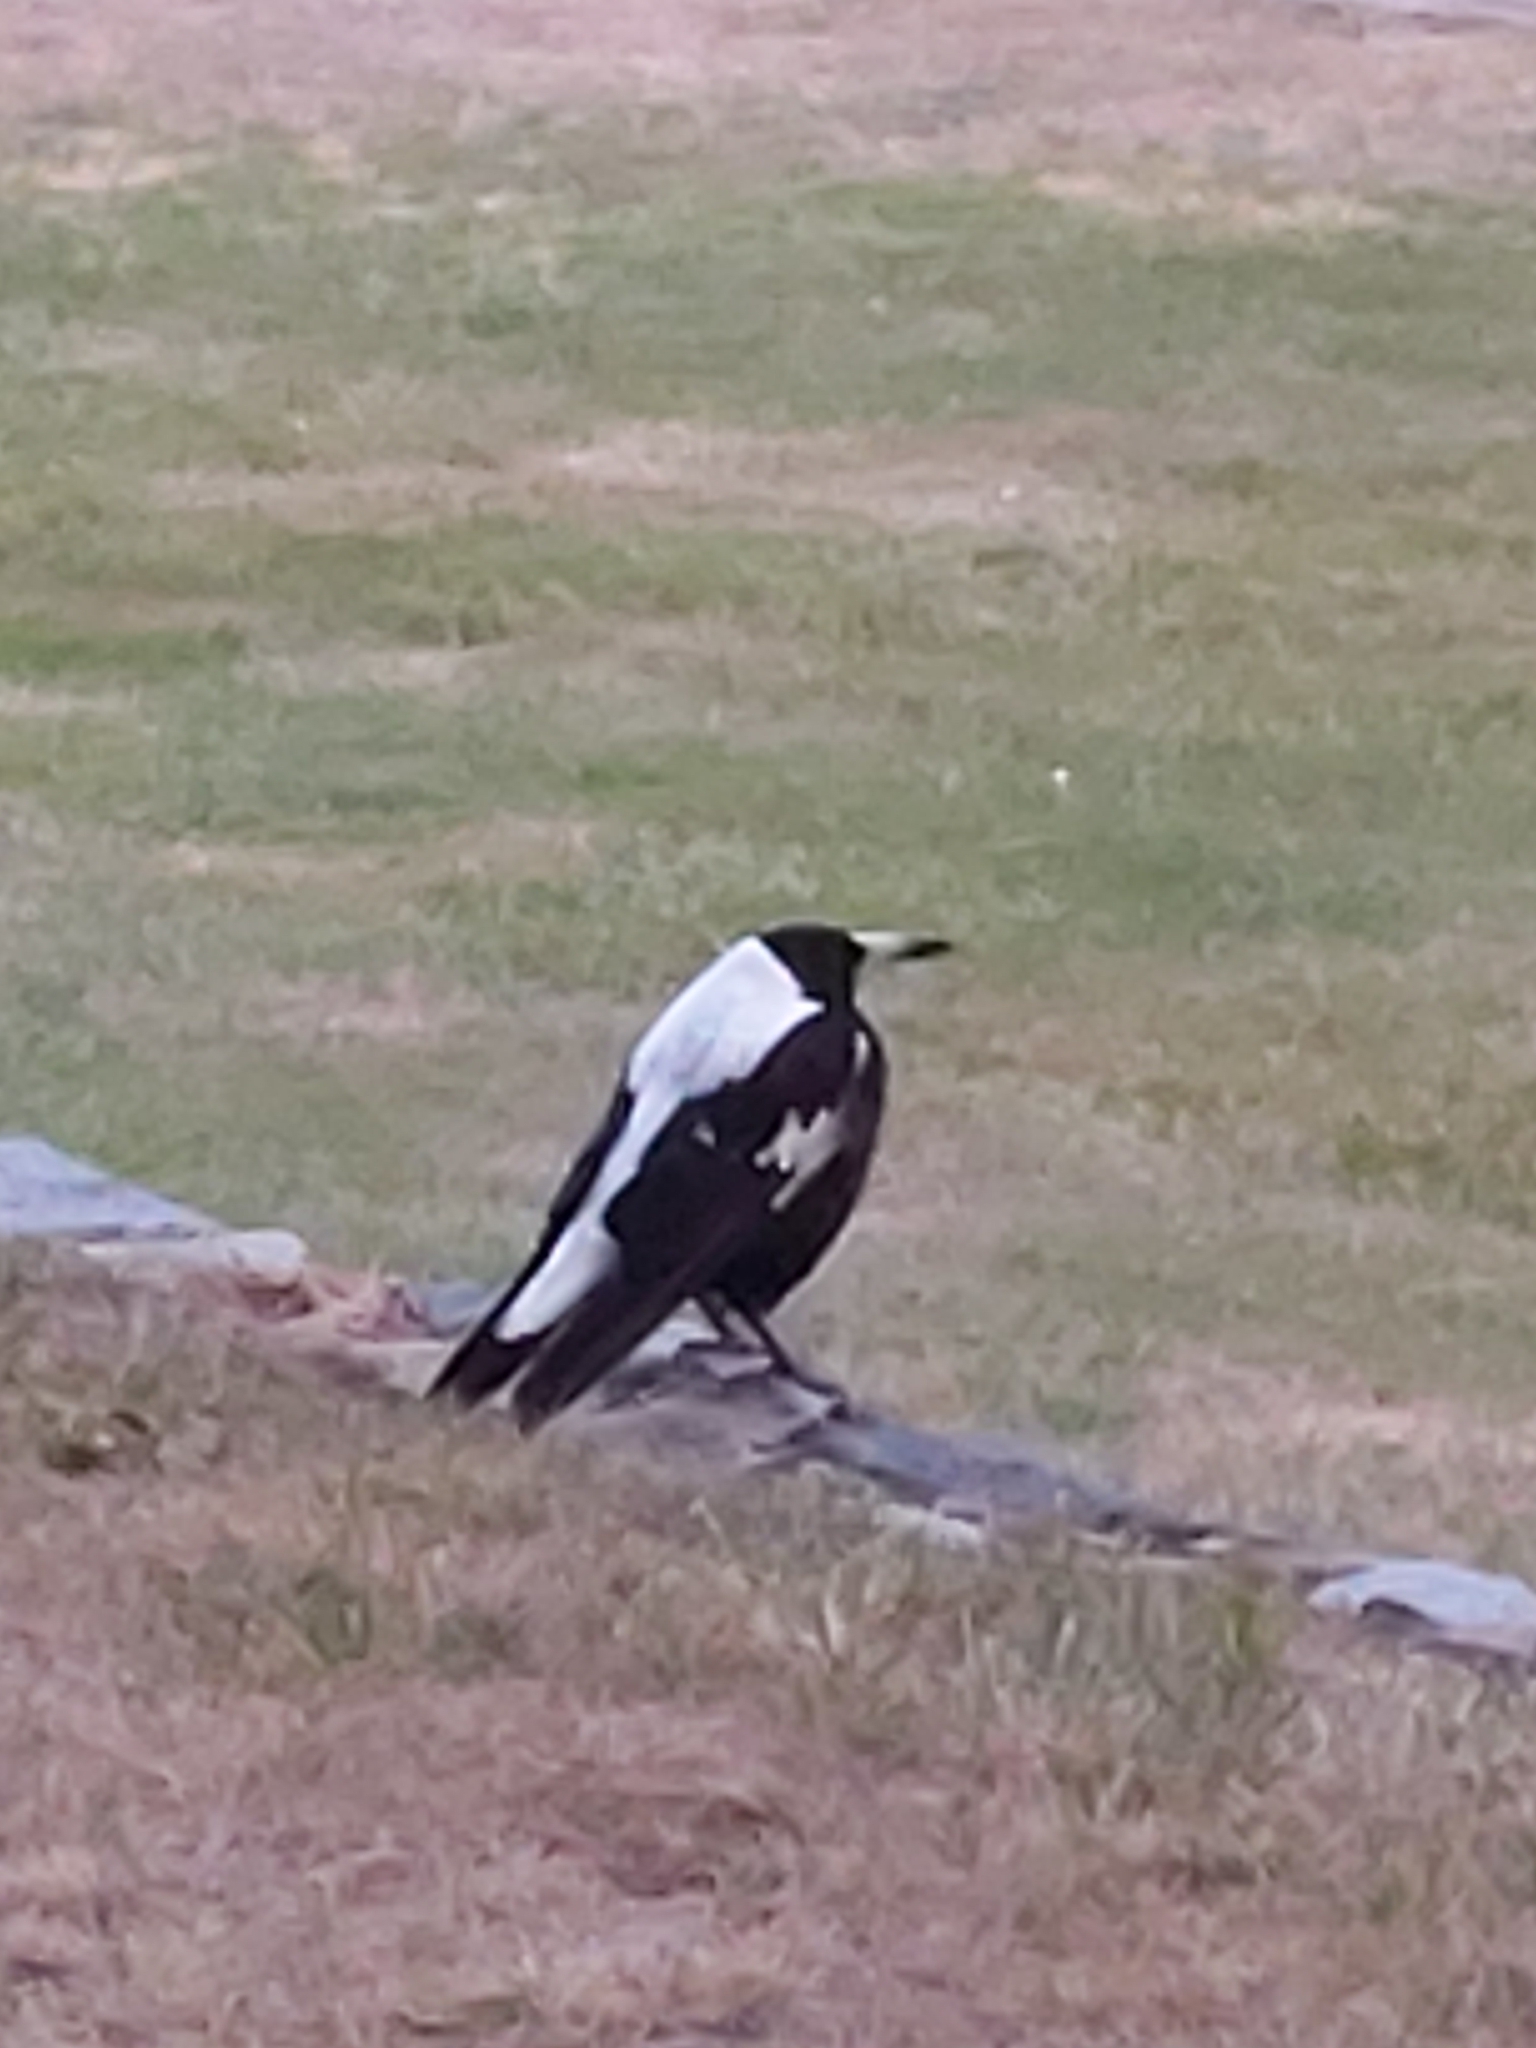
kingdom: Animalia
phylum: Chordata
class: Aves
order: Passeriformes
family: Cracticidae
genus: Gymnorhina
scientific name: Gymnorhina tibicen
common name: Australian magpie
